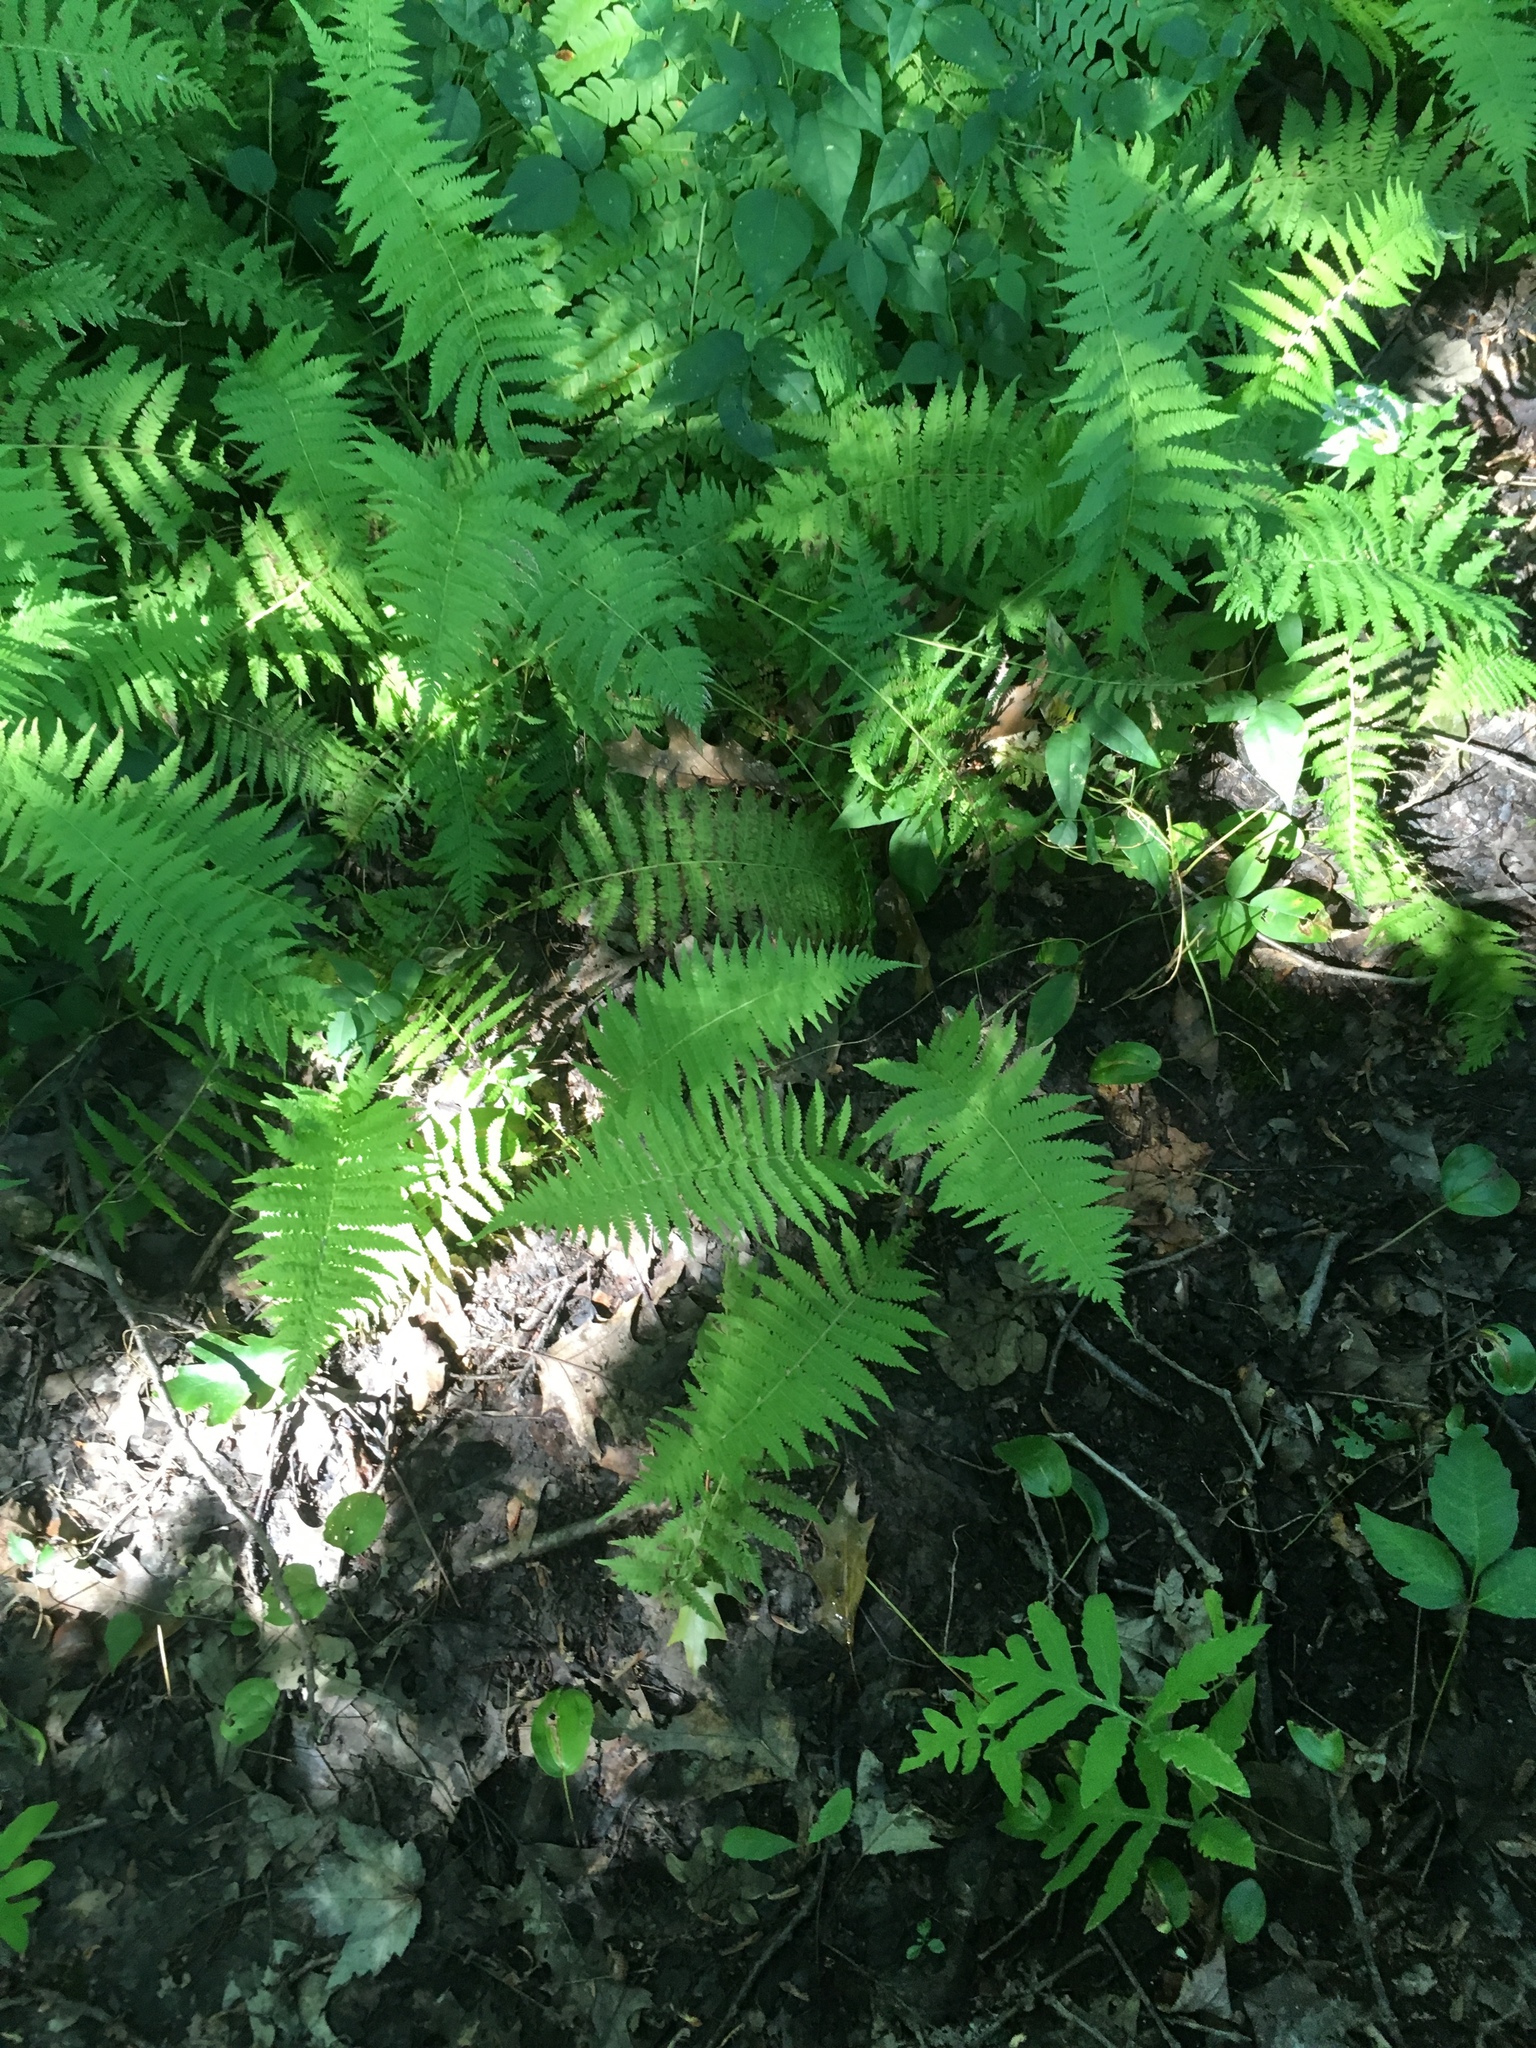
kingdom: Plantae
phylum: Tracheophyta
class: Polypodiopsida
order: Polypodiales
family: Thelypteridaceae
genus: Amauropelta
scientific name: Amauropelta noveboracensis
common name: New york fern
